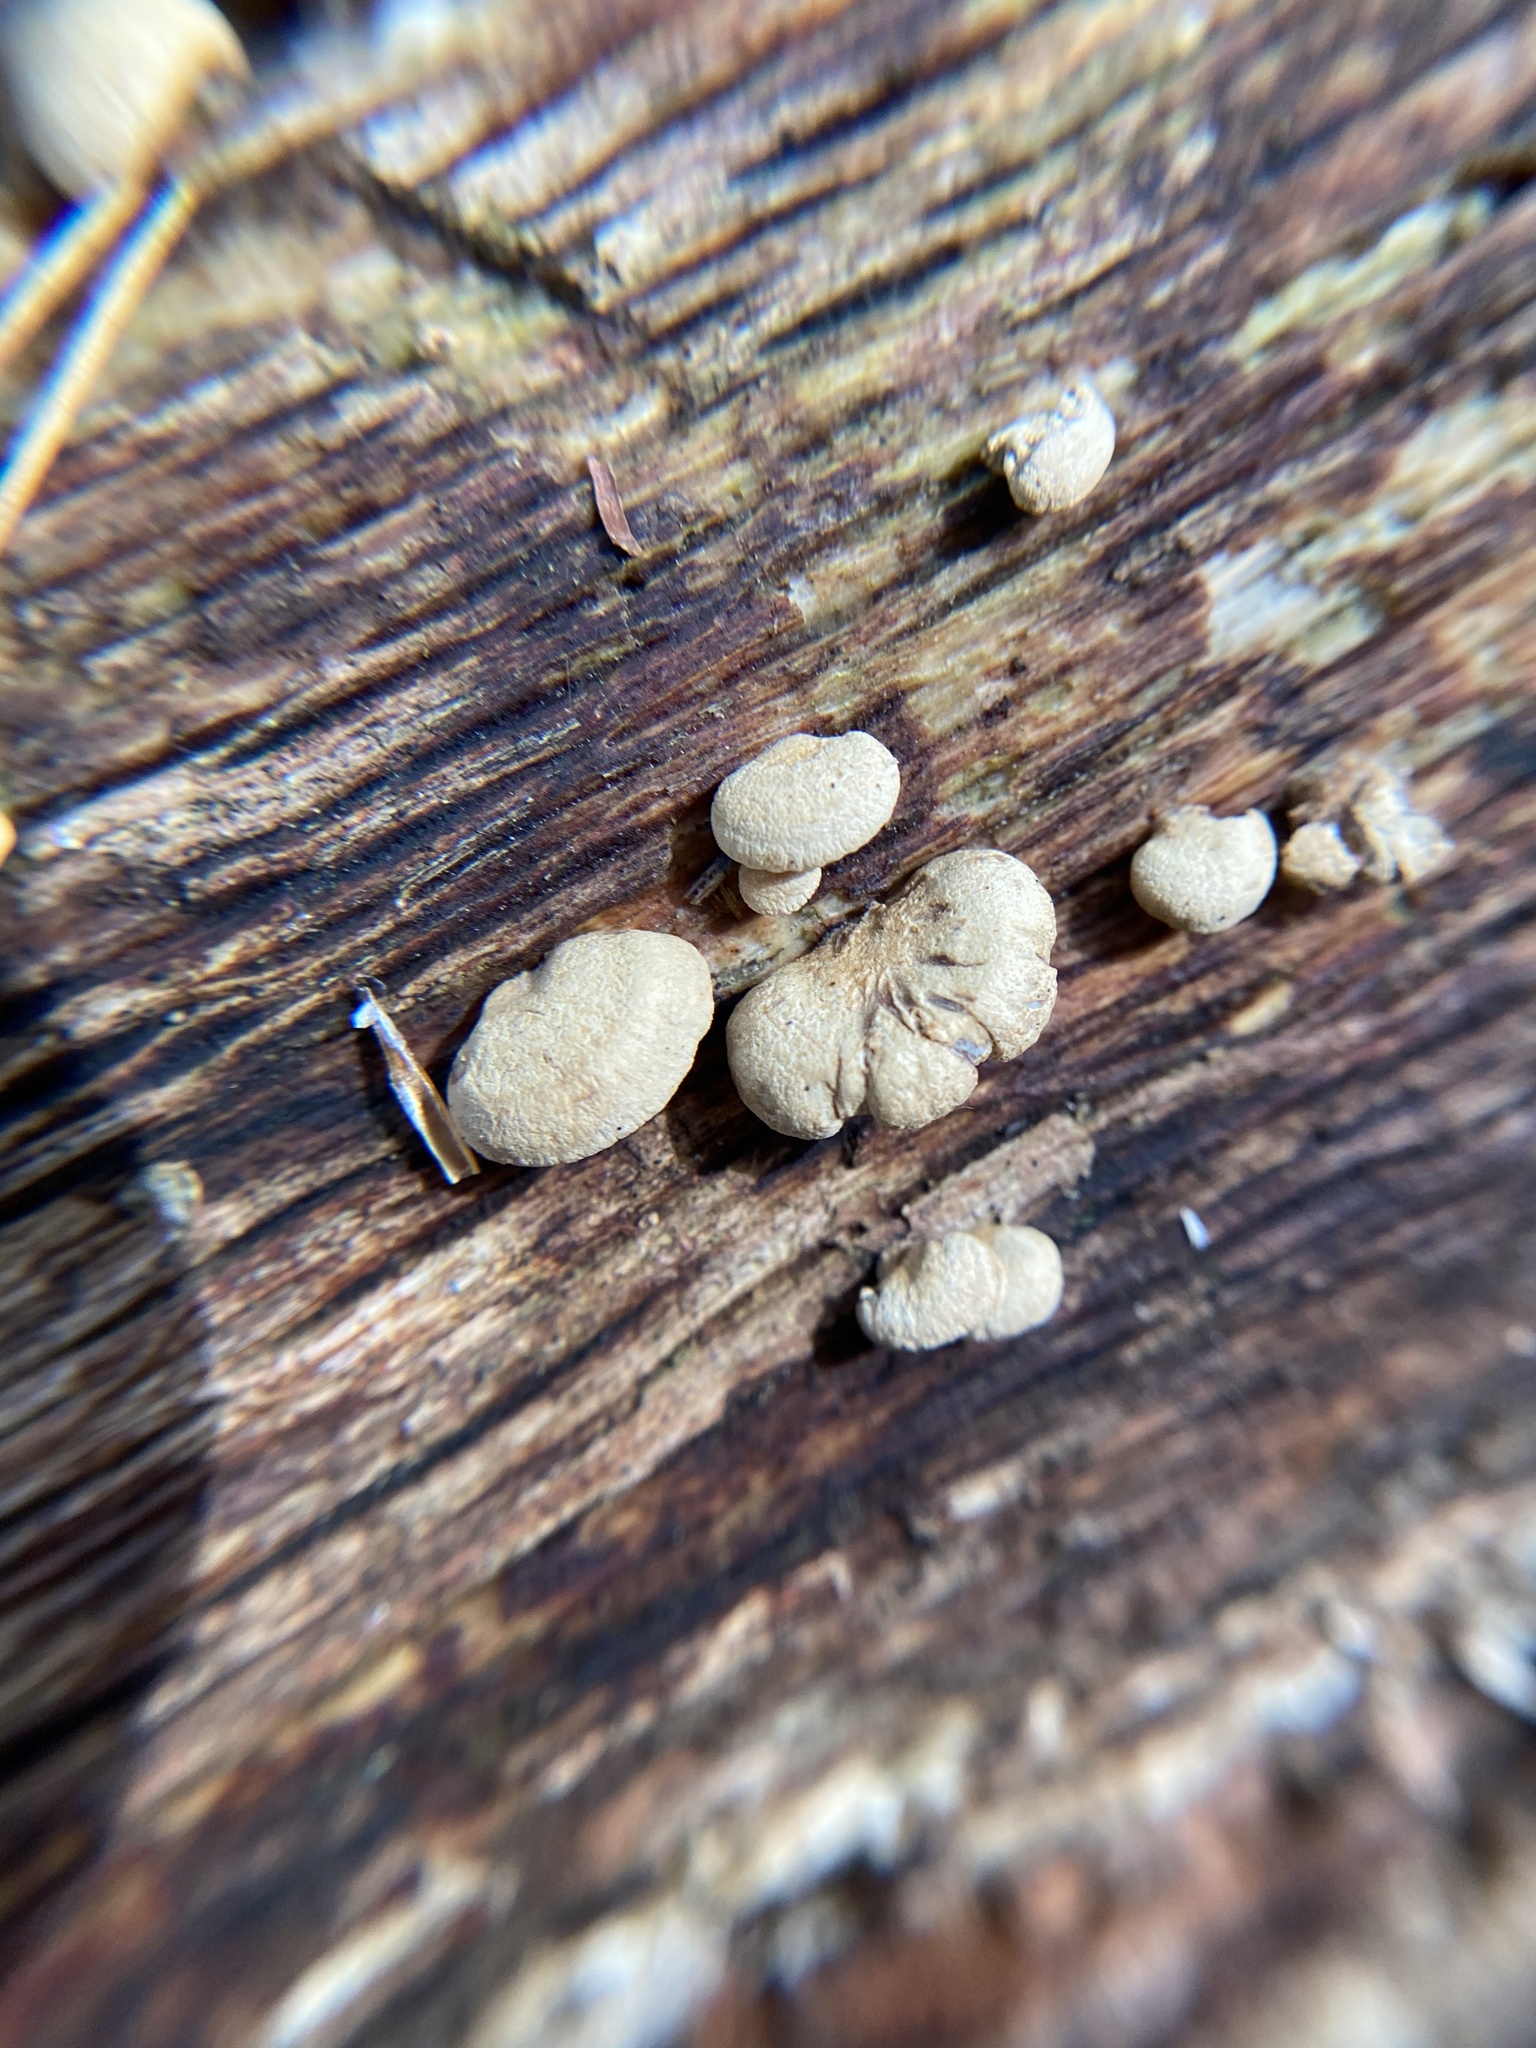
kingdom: Fungi
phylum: Basidiomycota
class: Agaricomycetes
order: Agaricales
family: Mycenaceae
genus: Panellus
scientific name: Panellus stipticus
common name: Bitter oysterling
